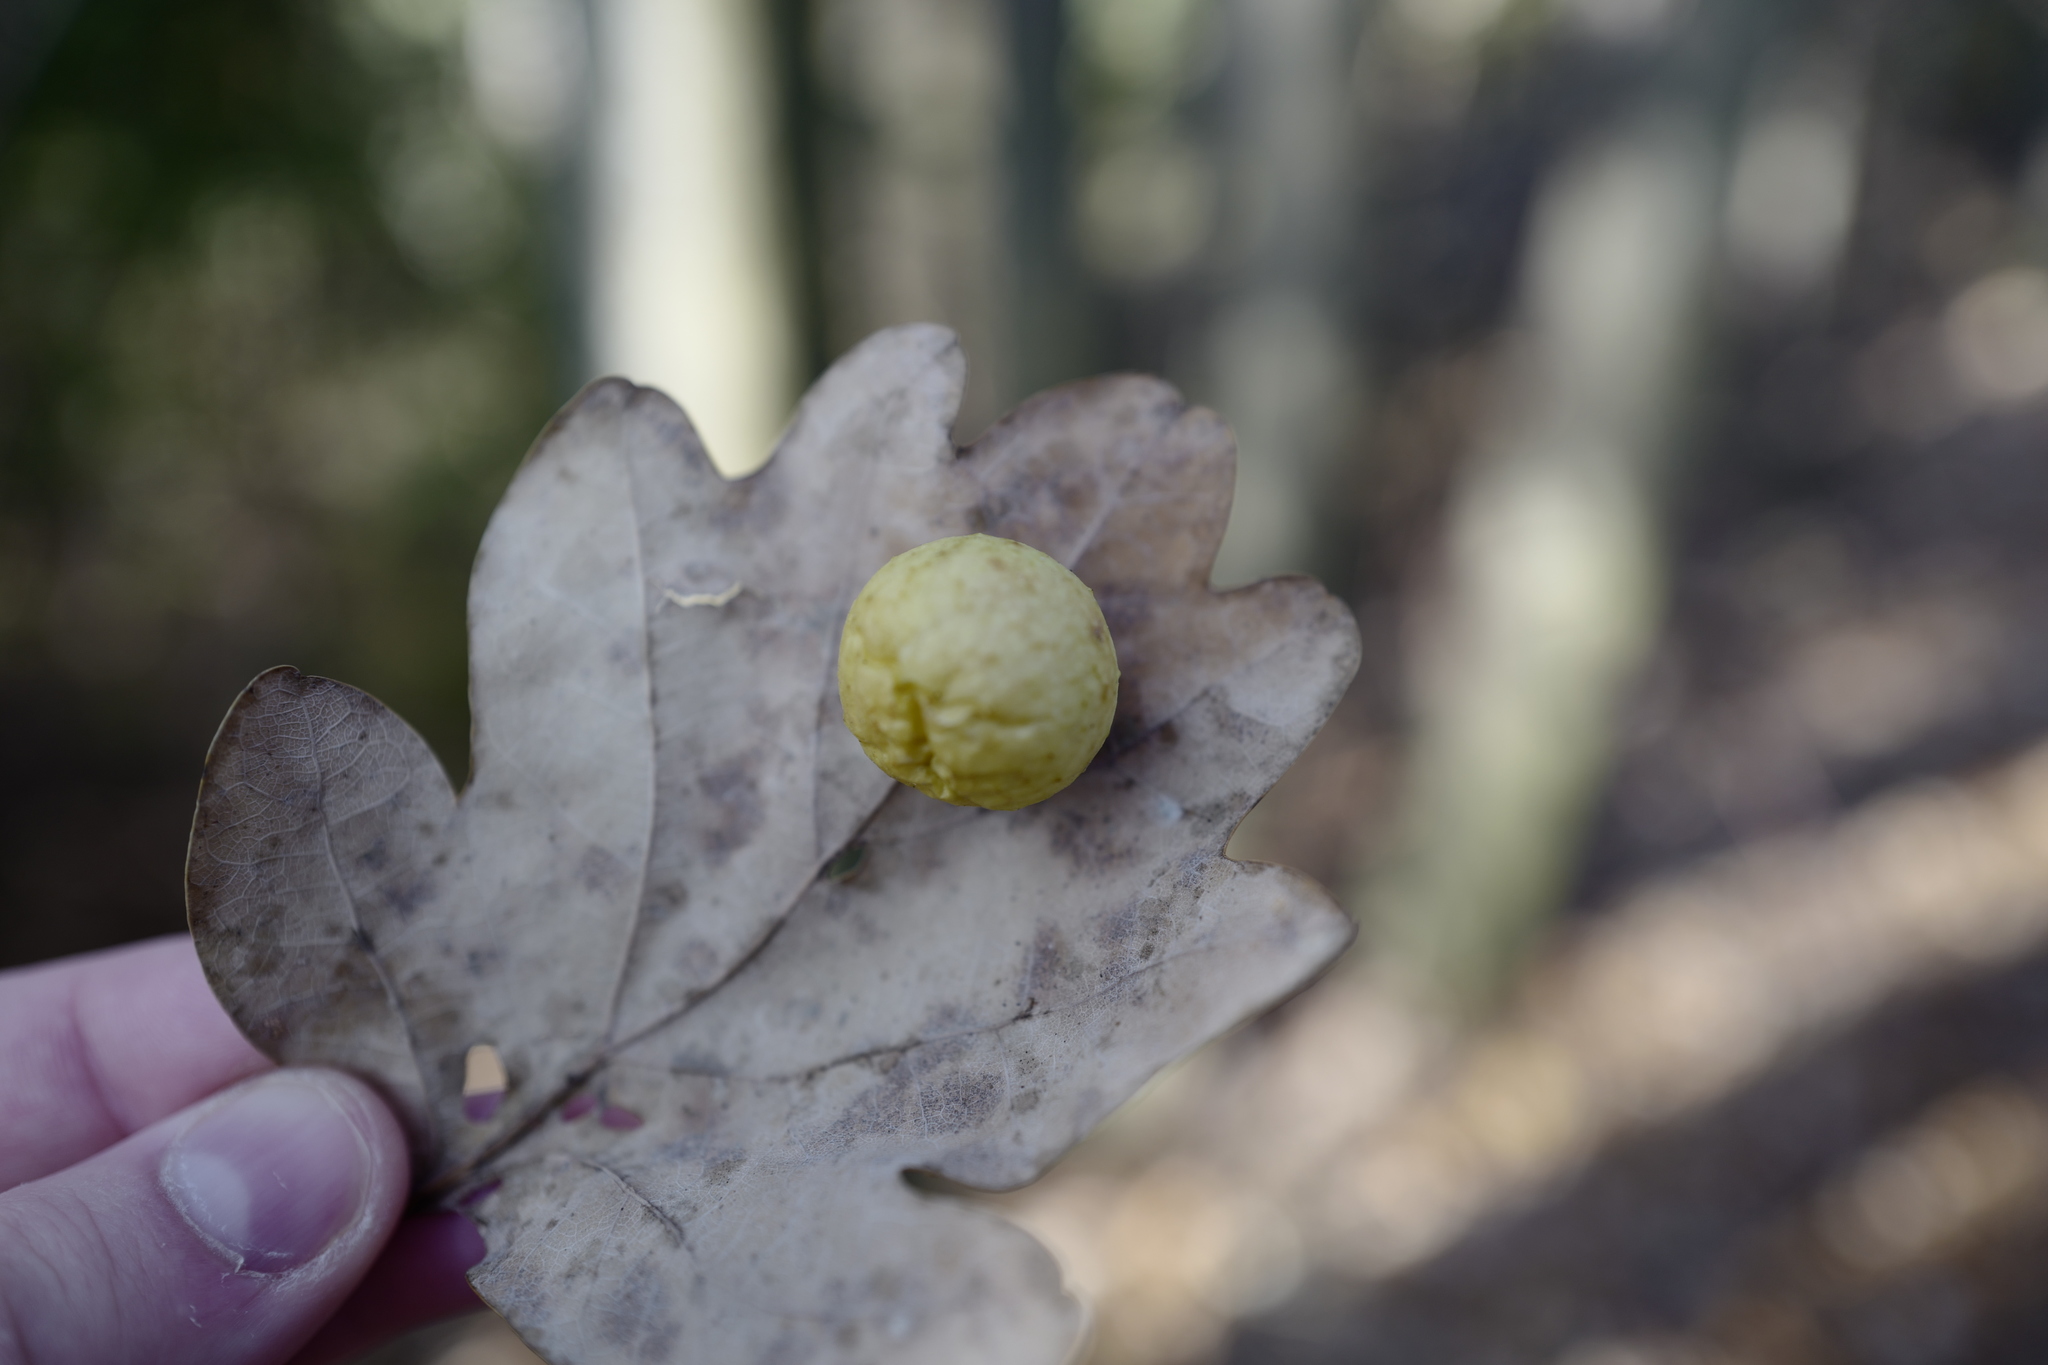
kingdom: Animalia
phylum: Arthropoda
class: Insecta
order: Hymenoptera
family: Cynipidae
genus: Cynips
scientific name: Cynips quercusfolii
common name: Cherry gall
